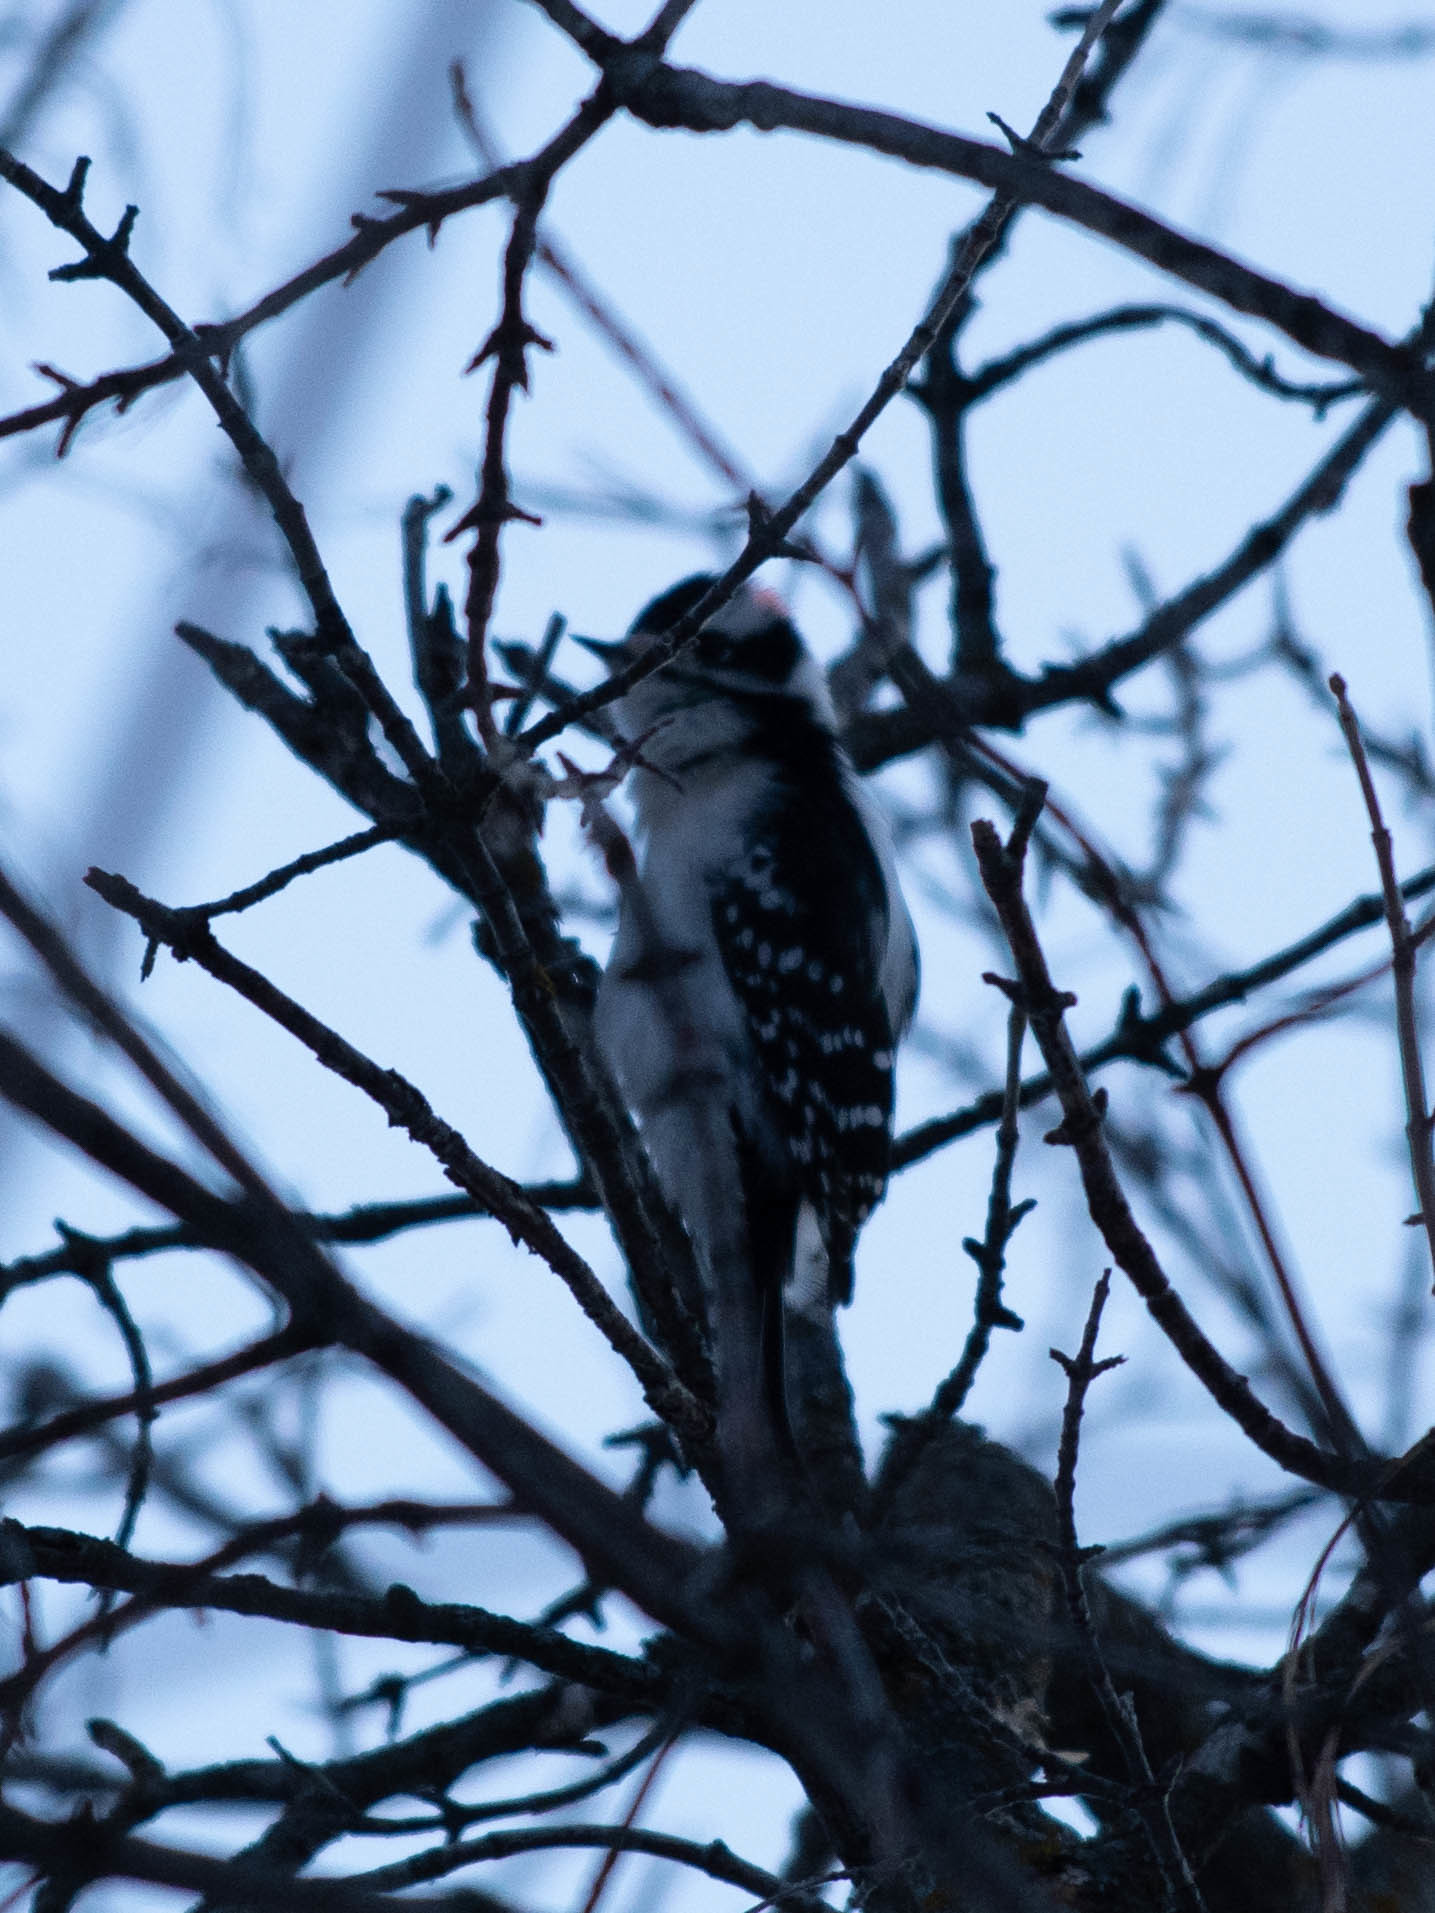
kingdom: Animalia
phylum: Chordata
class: Aves
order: Piciformes
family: Picidae
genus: Dryobates
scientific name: Dryobates pubescens
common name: Downy woodpecker
